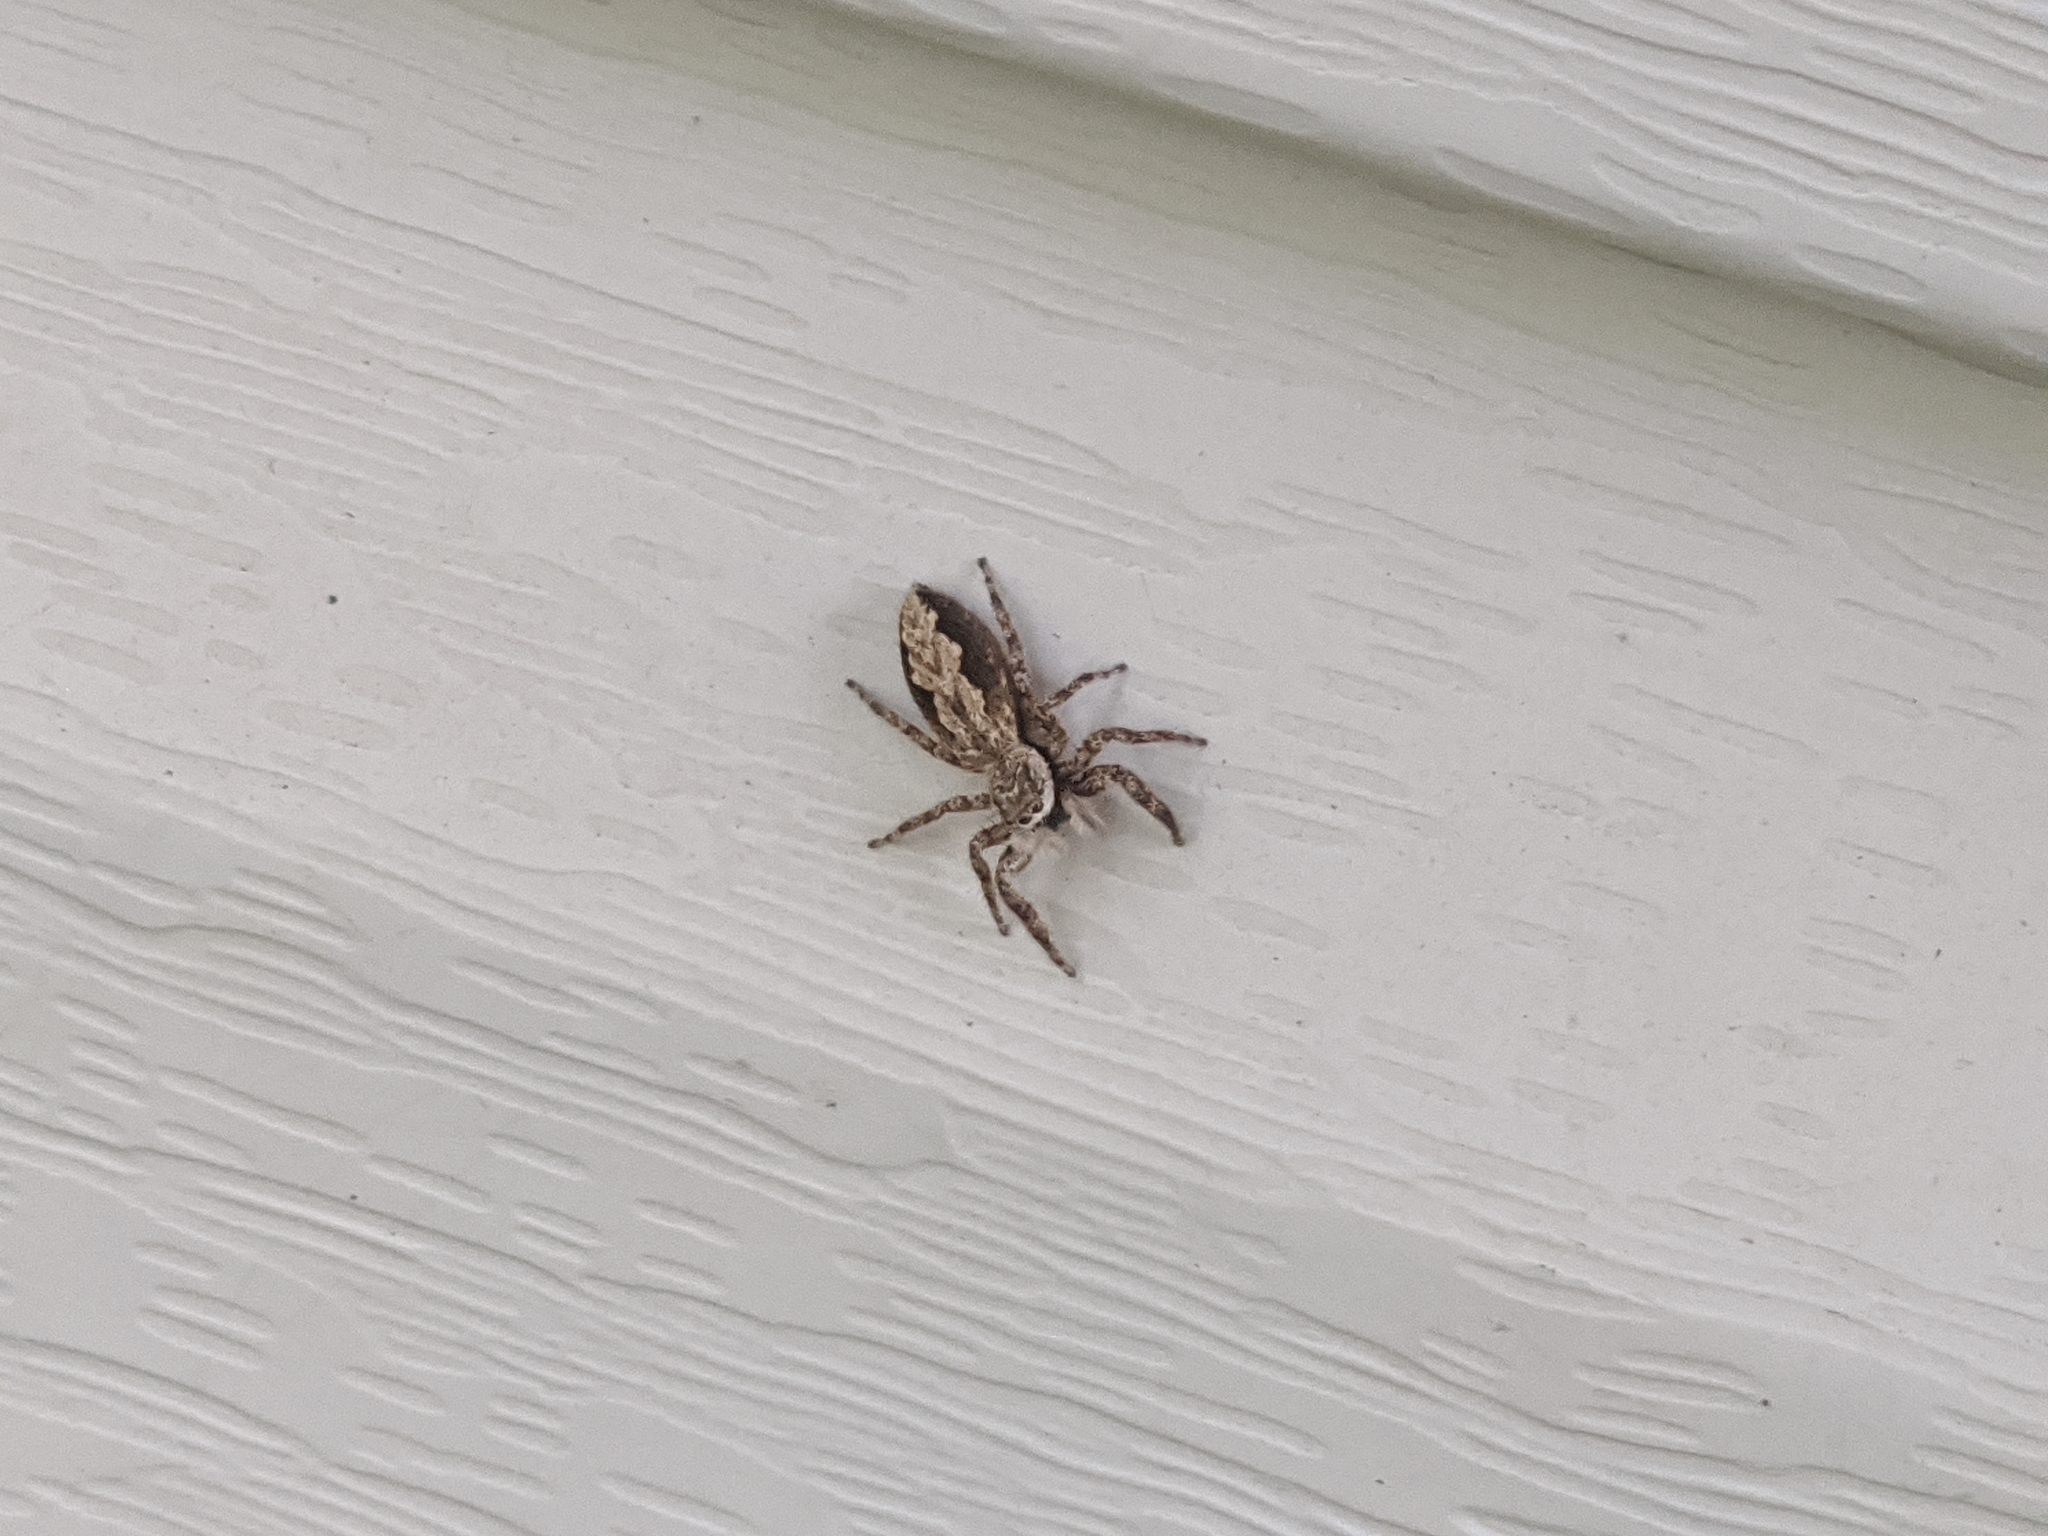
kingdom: Animalia
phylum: Arthropoda
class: Arachnida
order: Araneae
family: Salticidae
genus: Platycryptus
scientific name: Platycryptus undatus
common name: Tan jumping spider
